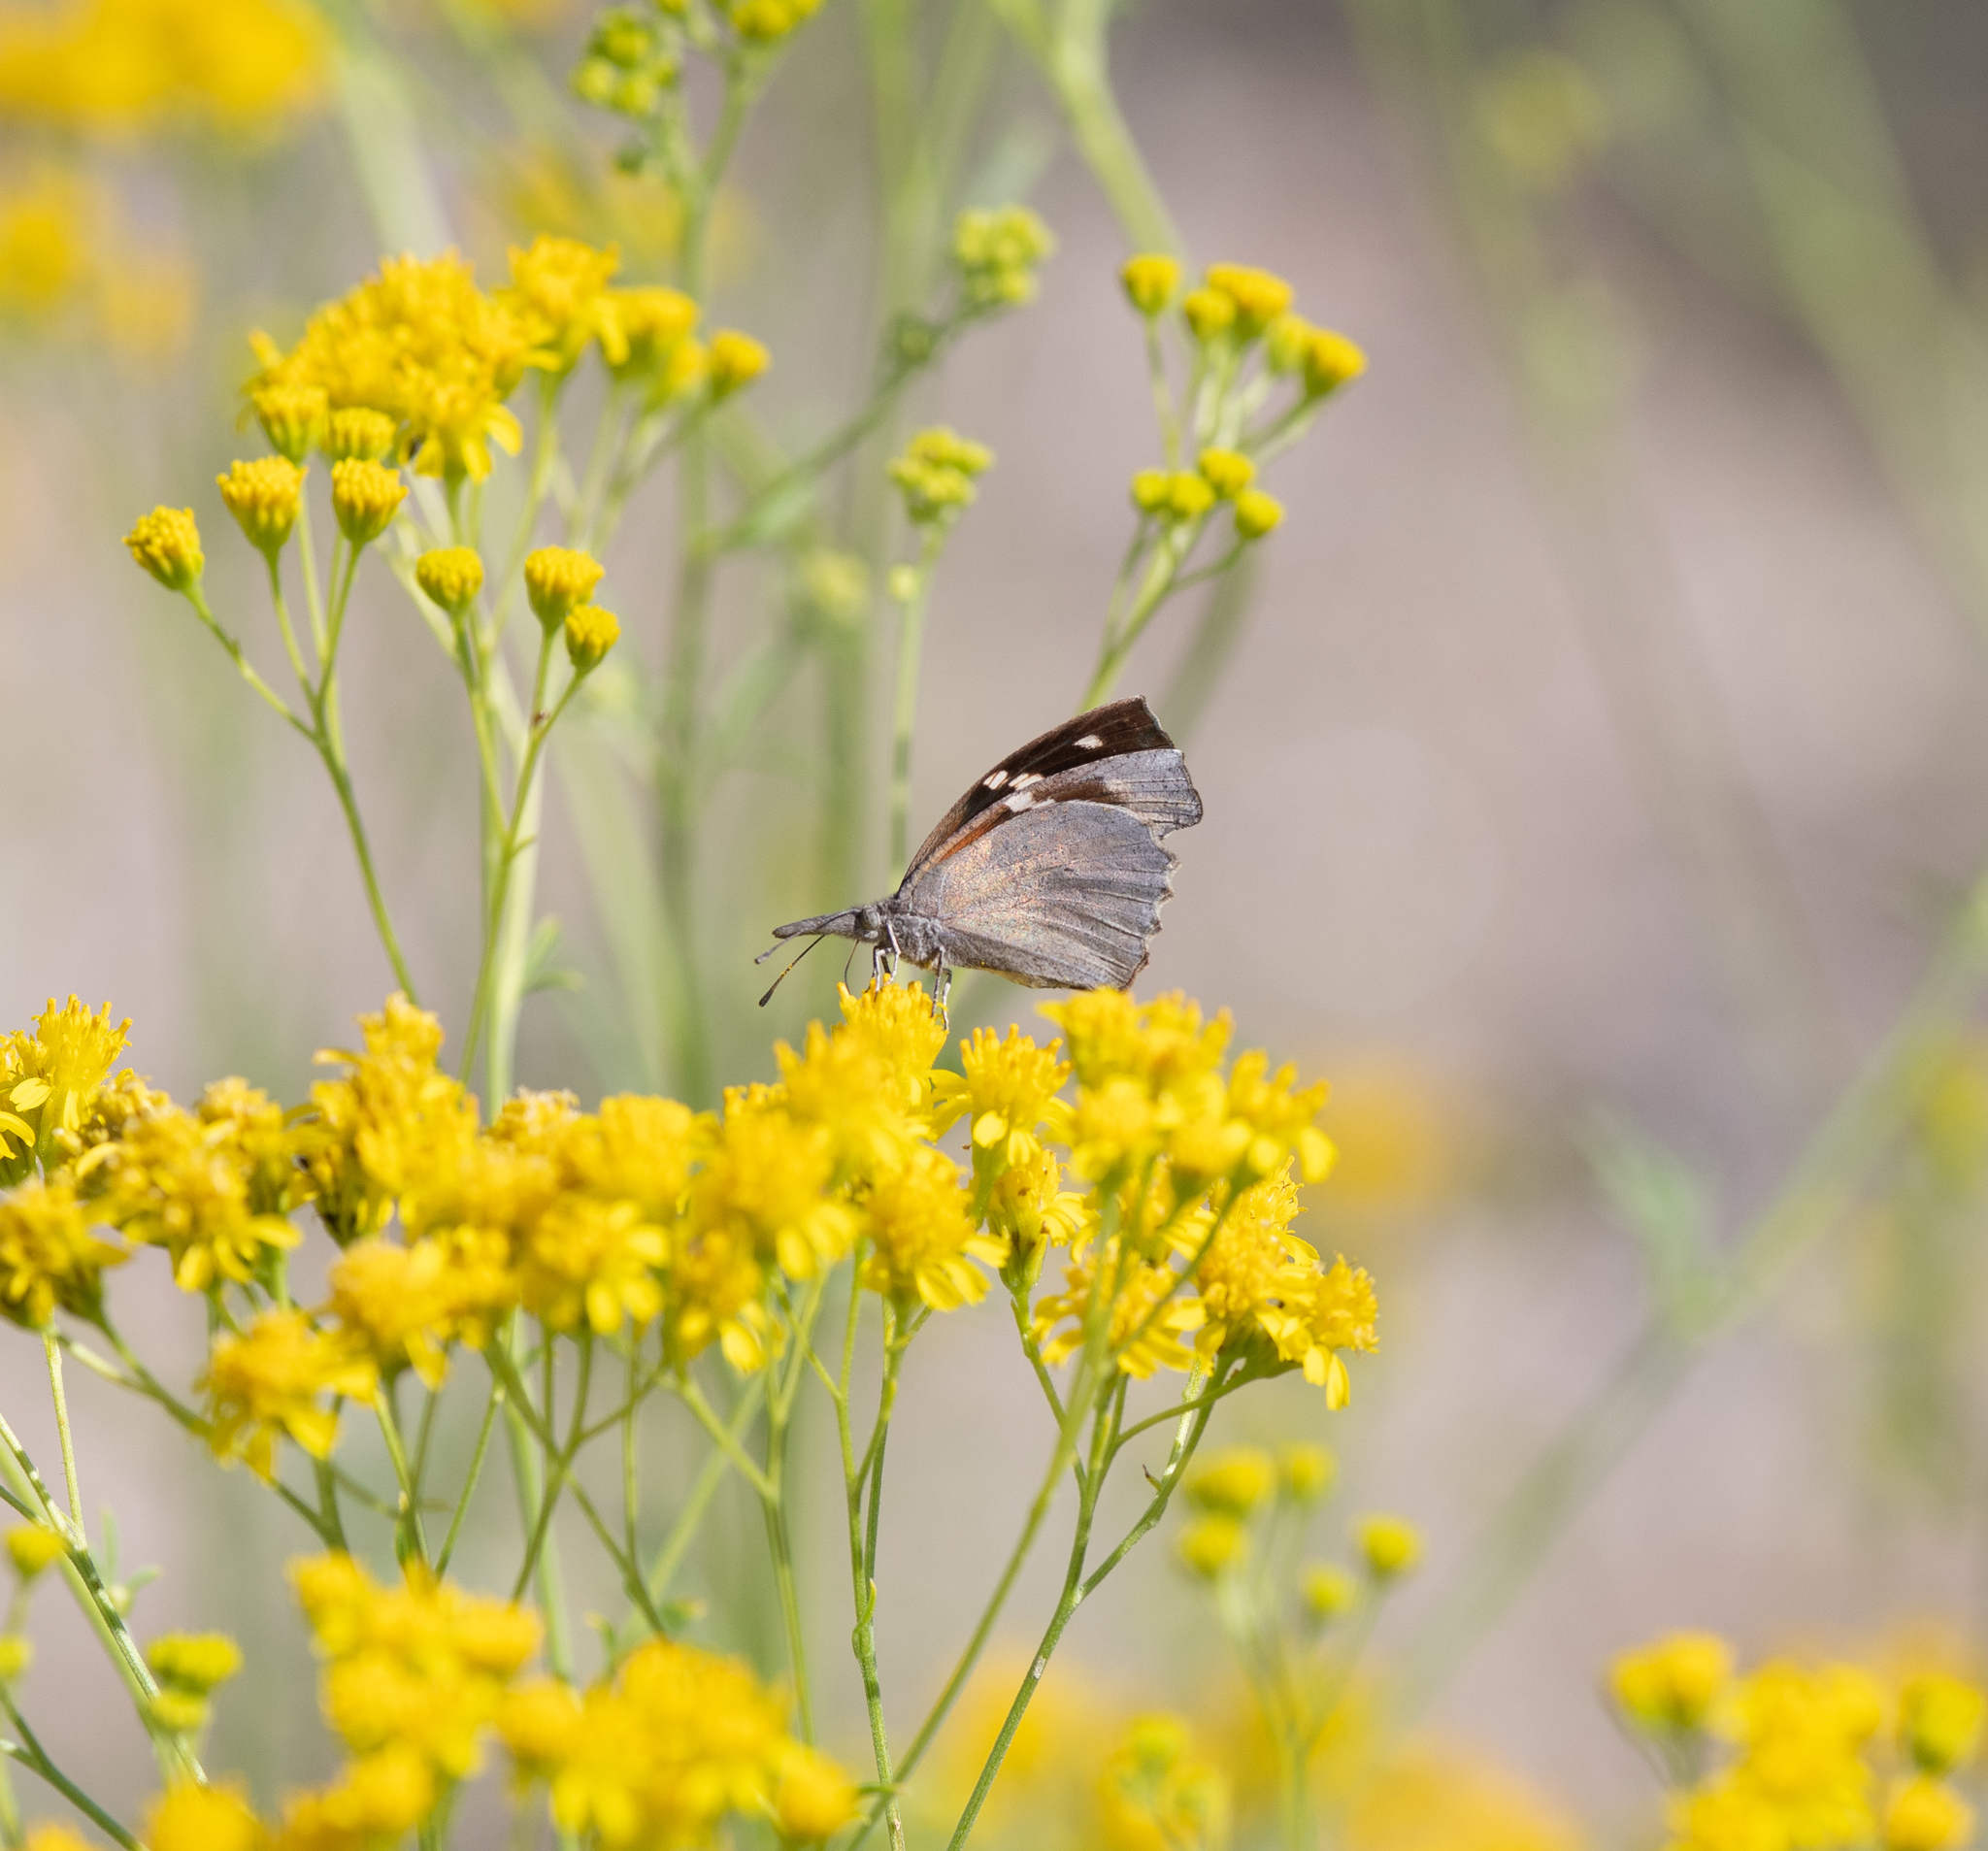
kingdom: Animalia
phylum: Arthropoda
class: Insecta
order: Lepidoptera
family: Nymphalidae
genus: Libytheana
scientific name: Libytheana carinenta
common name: American snout
